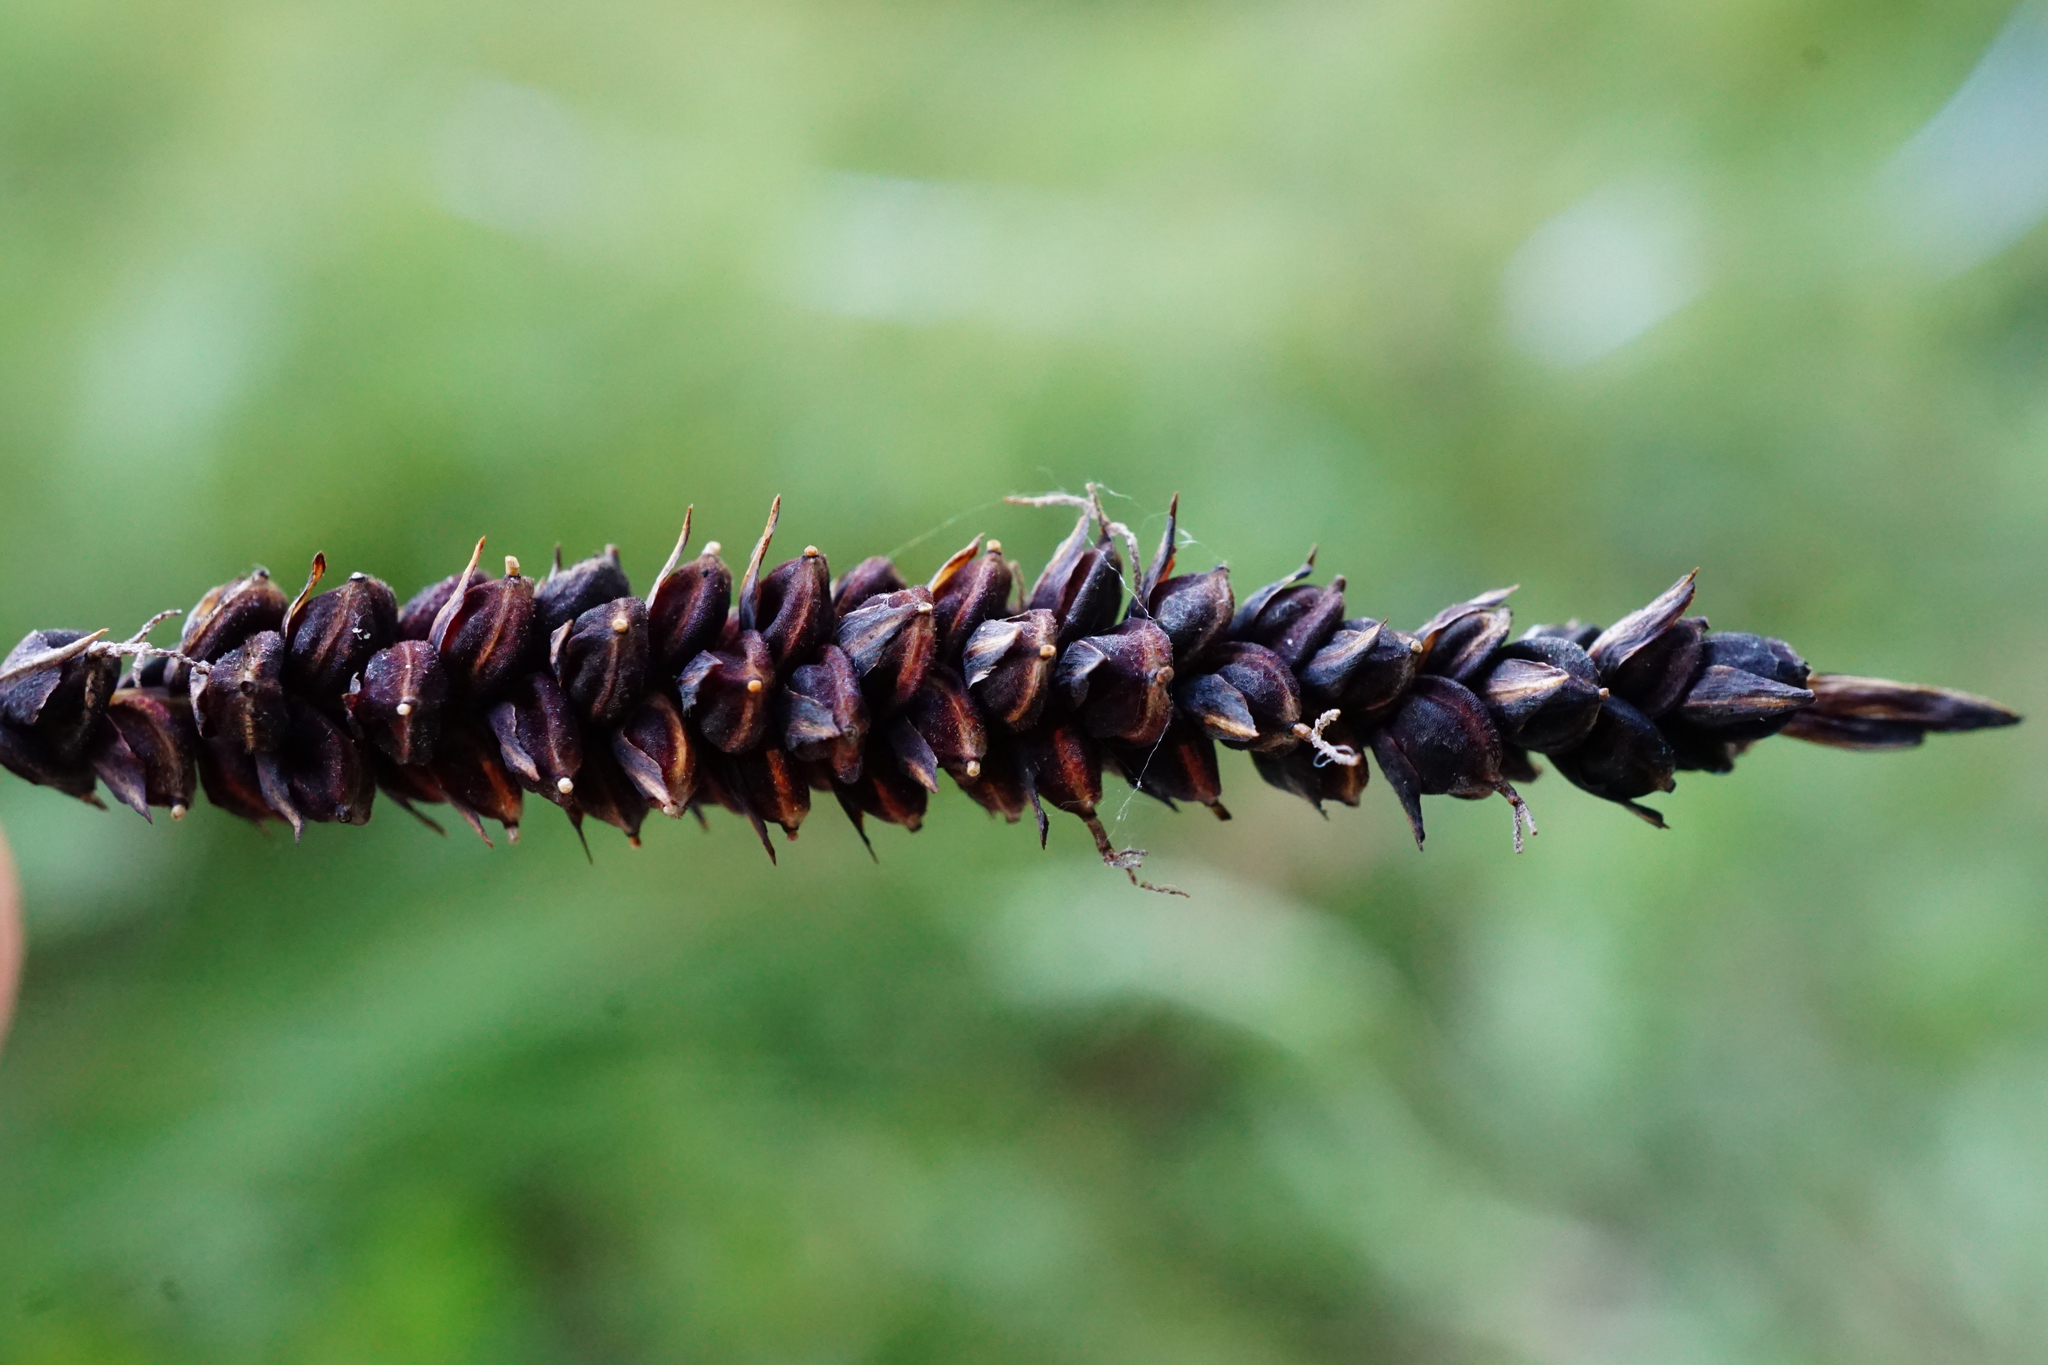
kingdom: Plantae
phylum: Tracheophyta
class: Liliopsida
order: Poales
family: Cyperaceae
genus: Carex
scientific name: Carex flacca
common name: Glaucous sedge
